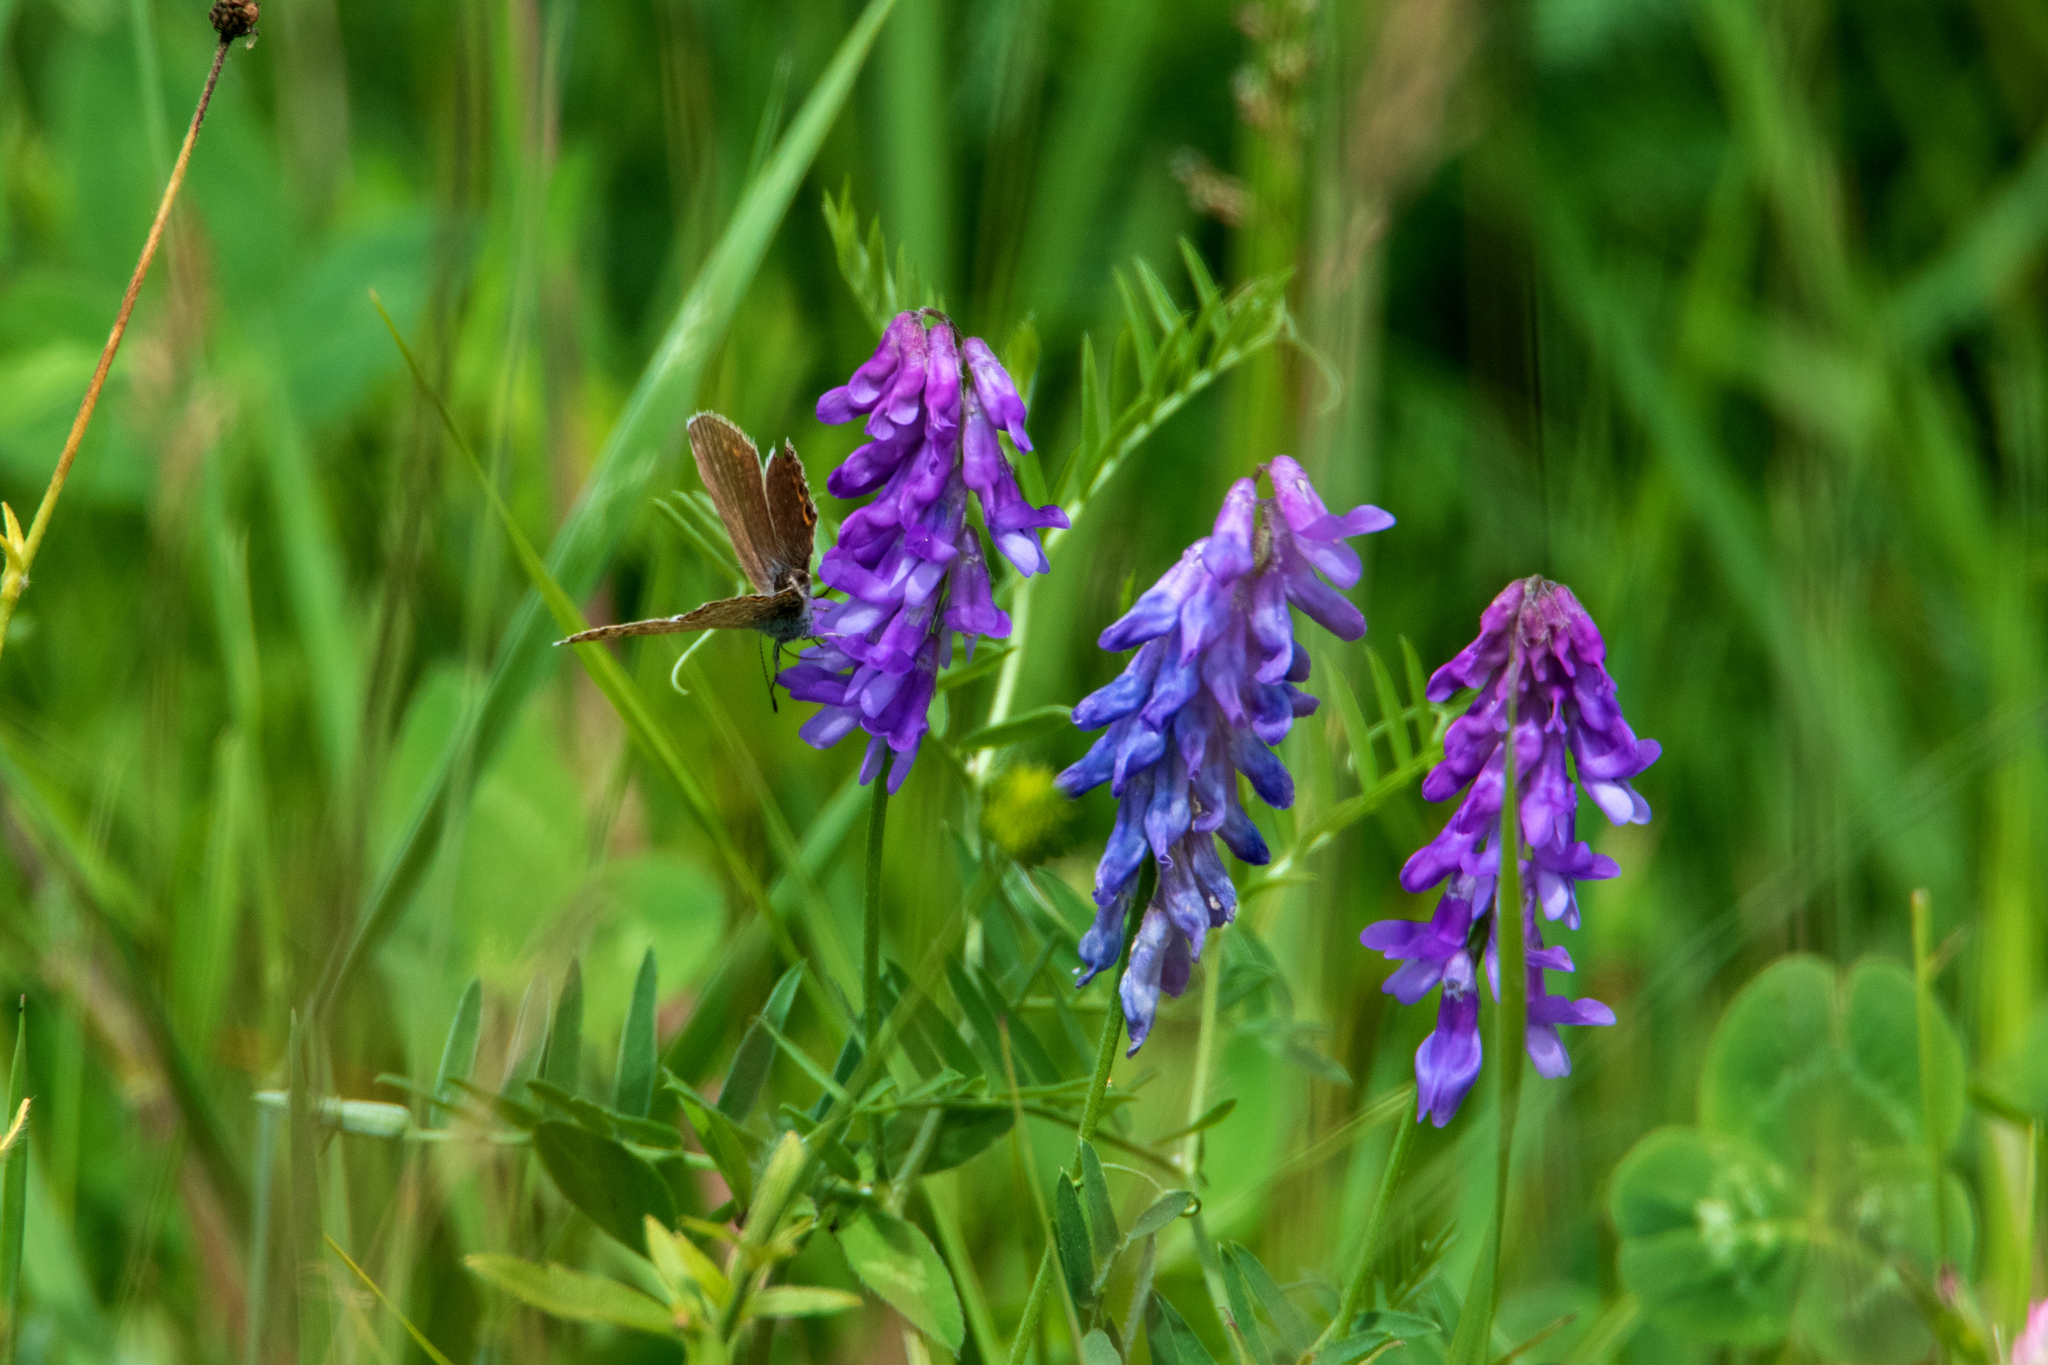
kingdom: Plantae
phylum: Tracheophyta
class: Magnoliopsida
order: Fabales
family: Fabaceae
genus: Vicia
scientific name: Vicia cracca
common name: Bird vetch
